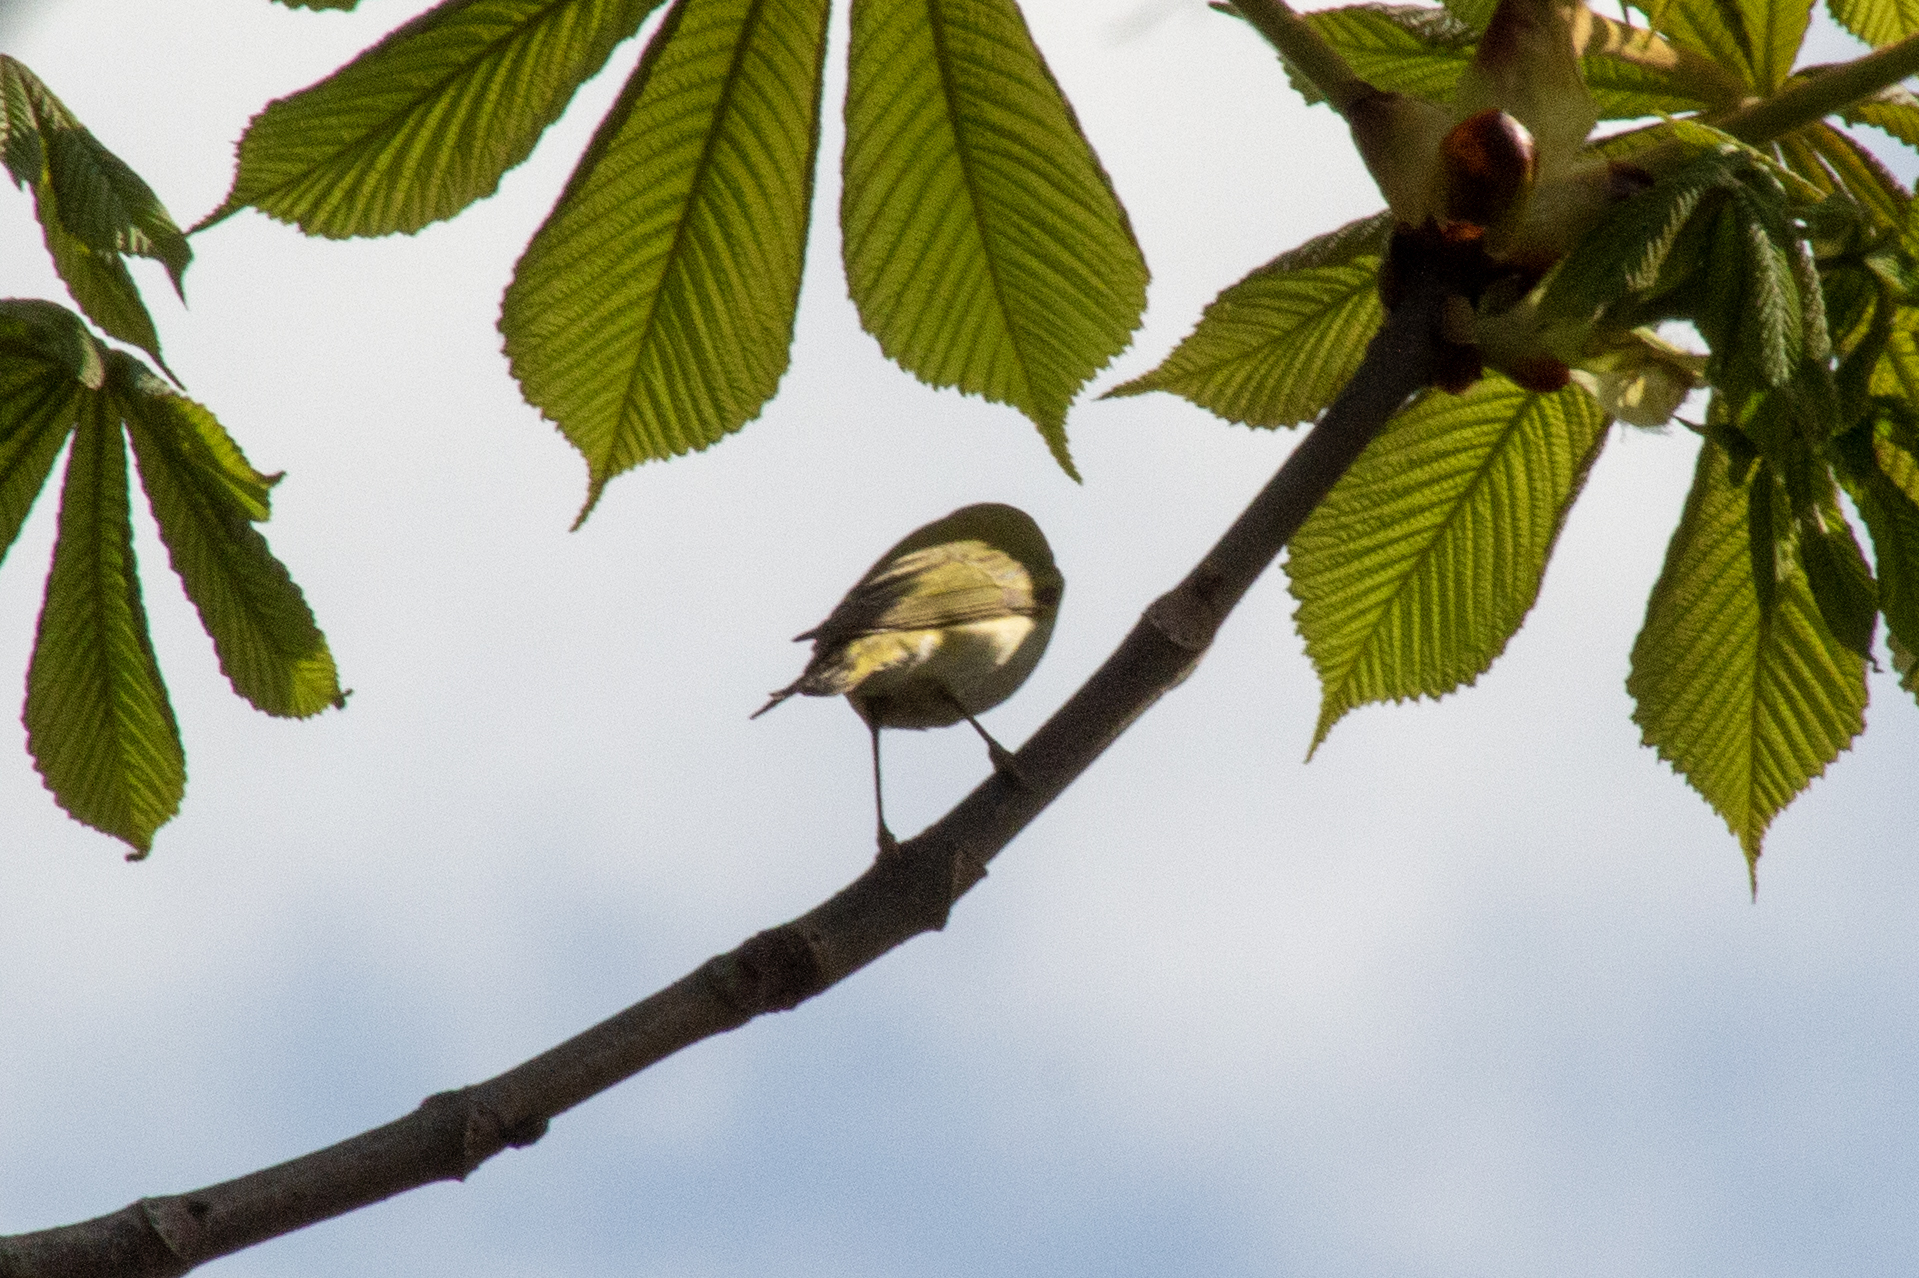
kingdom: Animalia
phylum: Chordata
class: Aves
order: Passeriformes
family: Phylloscopidae
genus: Phylloscopus
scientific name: Phylloscopus sibillatrix
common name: Wood warbler
